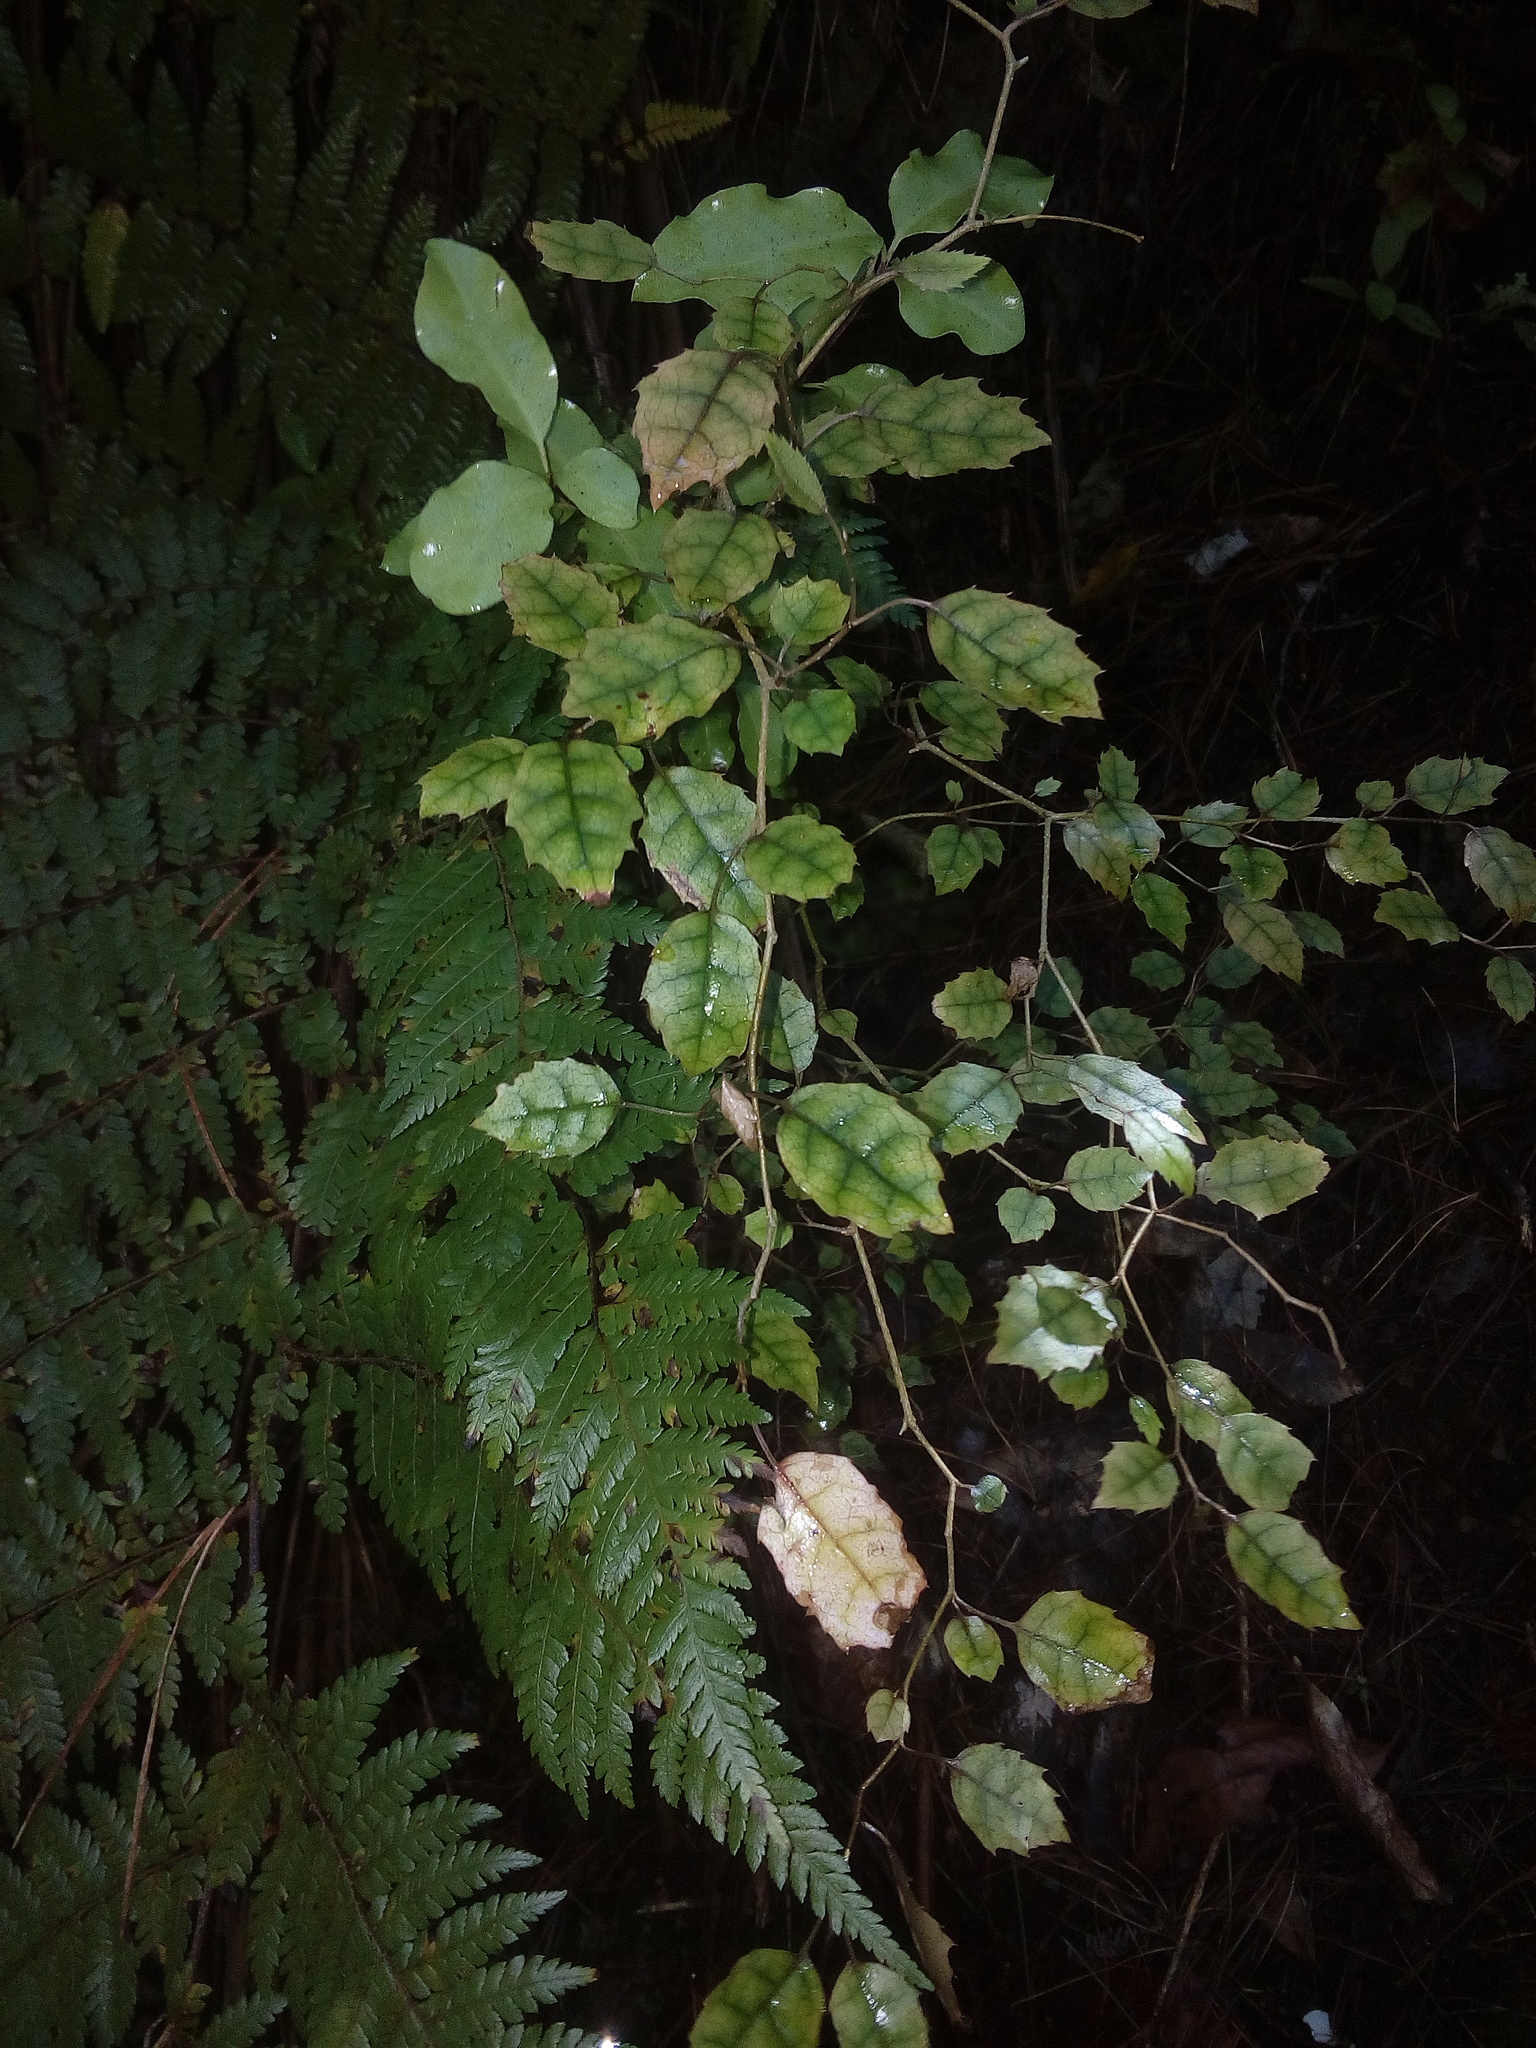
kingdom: Plantae
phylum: Tracheophyta
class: Magnoliopsida
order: Asterales
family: Rousseaceae
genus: Carpodetus
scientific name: Carpodetus serratus
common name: White mapau
